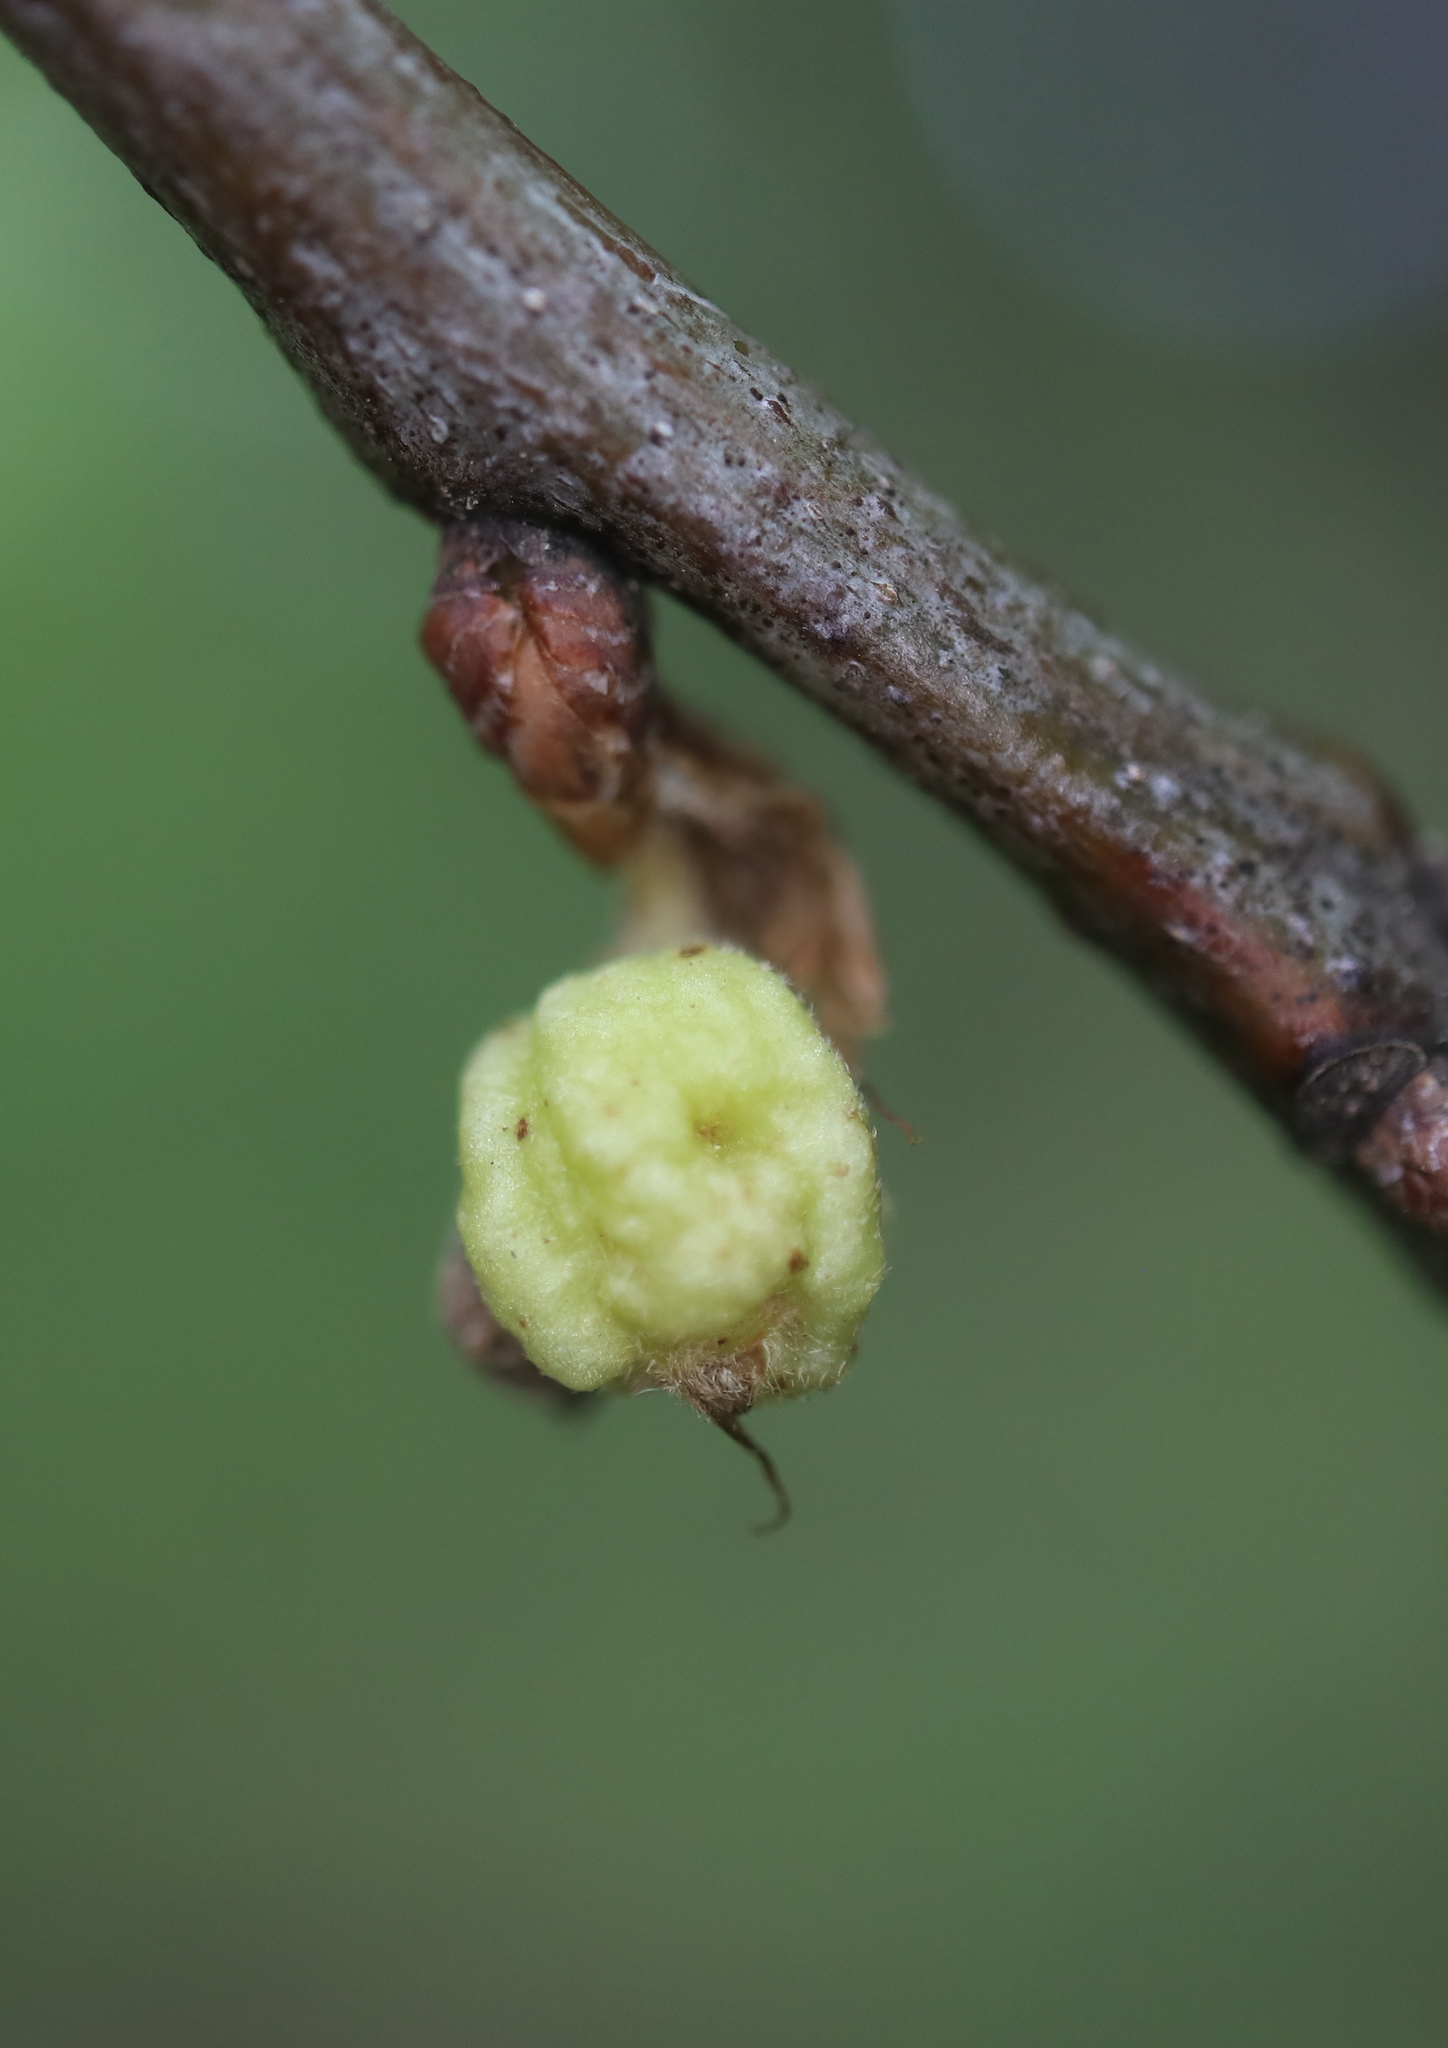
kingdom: Animalia
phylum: Arthropoda
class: Insecta
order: Hymenoptera
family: Cynipidae
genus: Dryocosmus
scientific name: Dryocosmus quercuspalustris
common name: Succulent oak gall wasp
